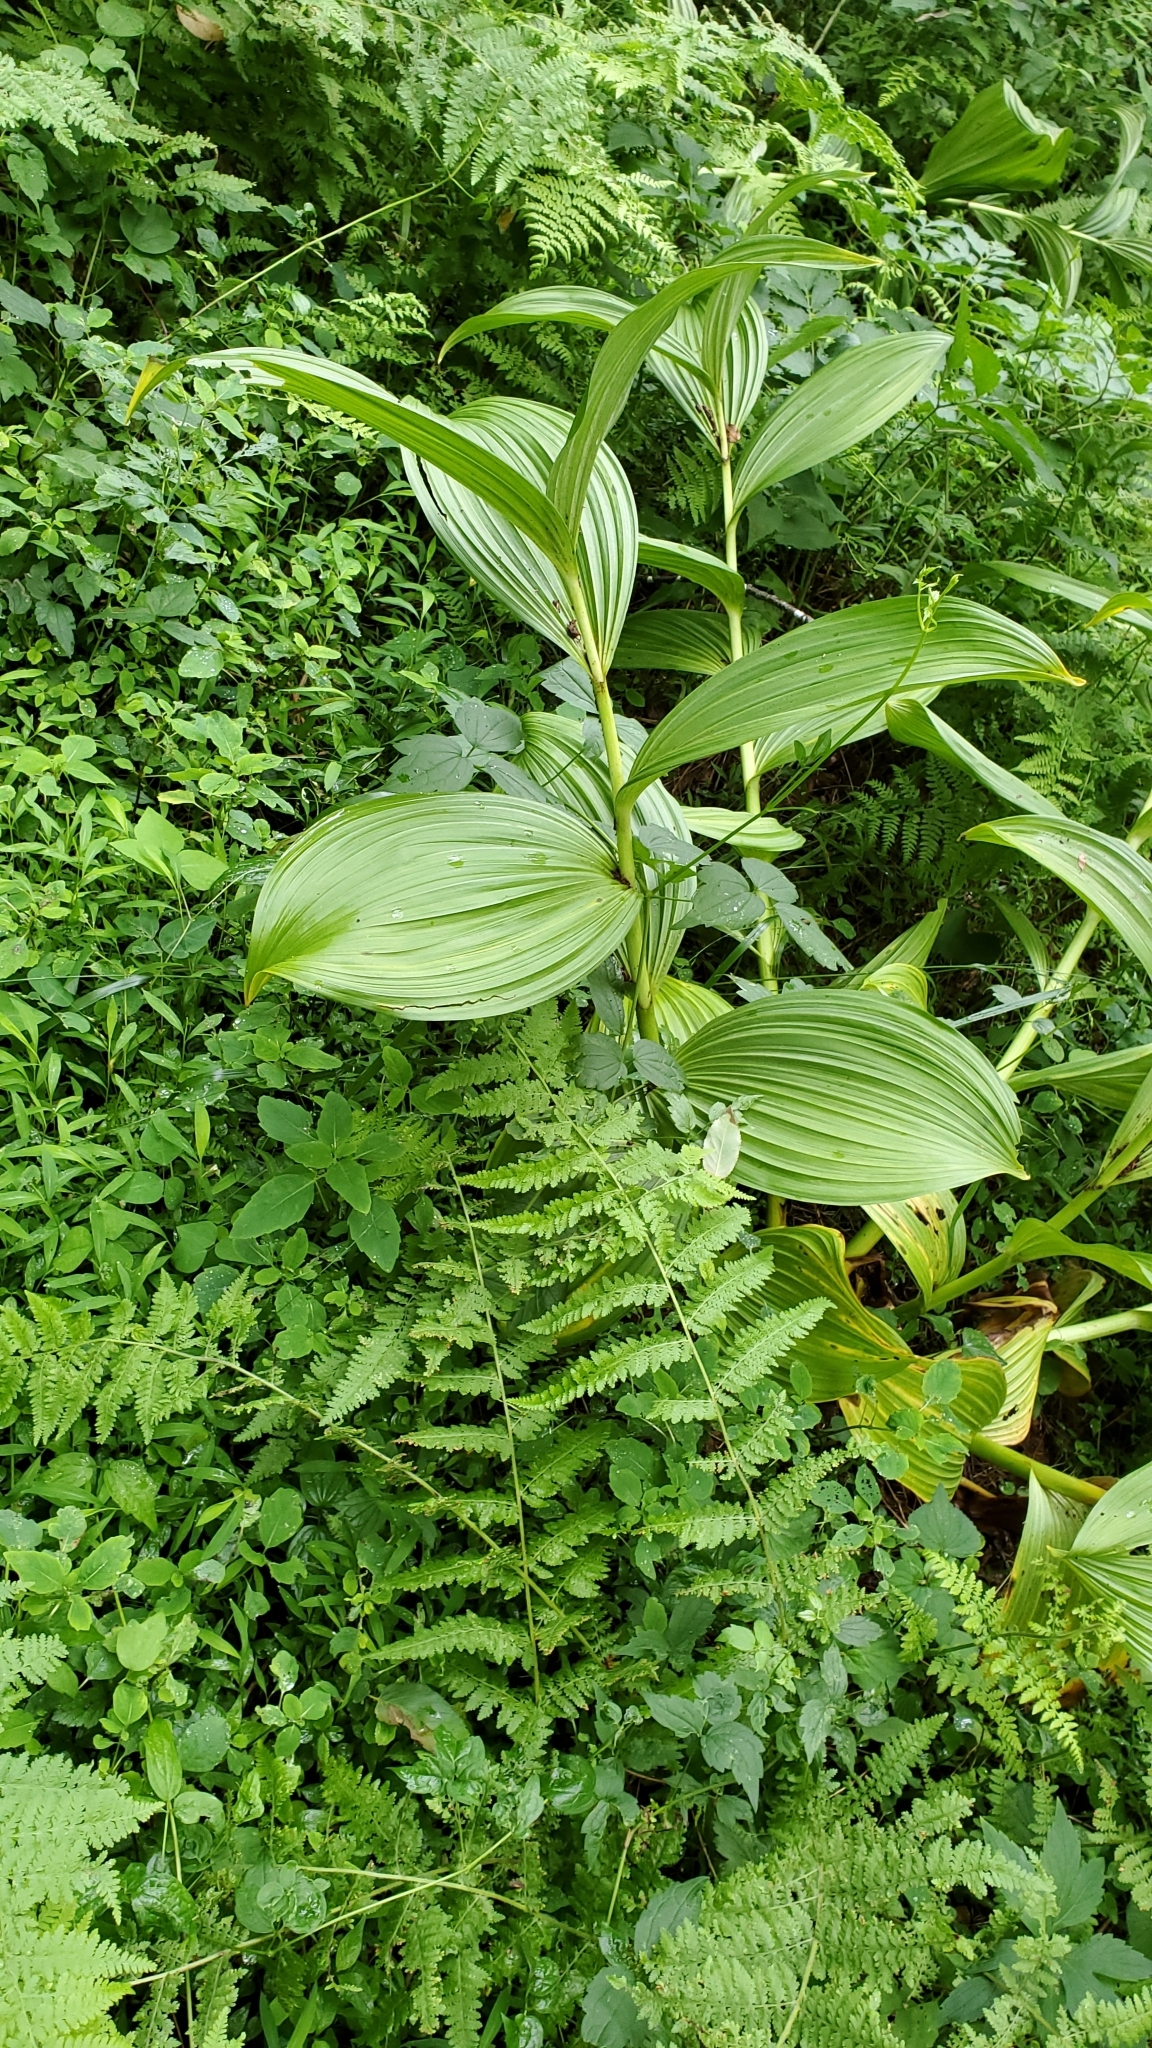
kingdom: Plantae
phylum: Tracheophyta
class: Liliopsida
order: Liliales
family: Melanthiaceae
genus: Veratrum
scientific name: Veratrum viride
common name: American false hellebore
